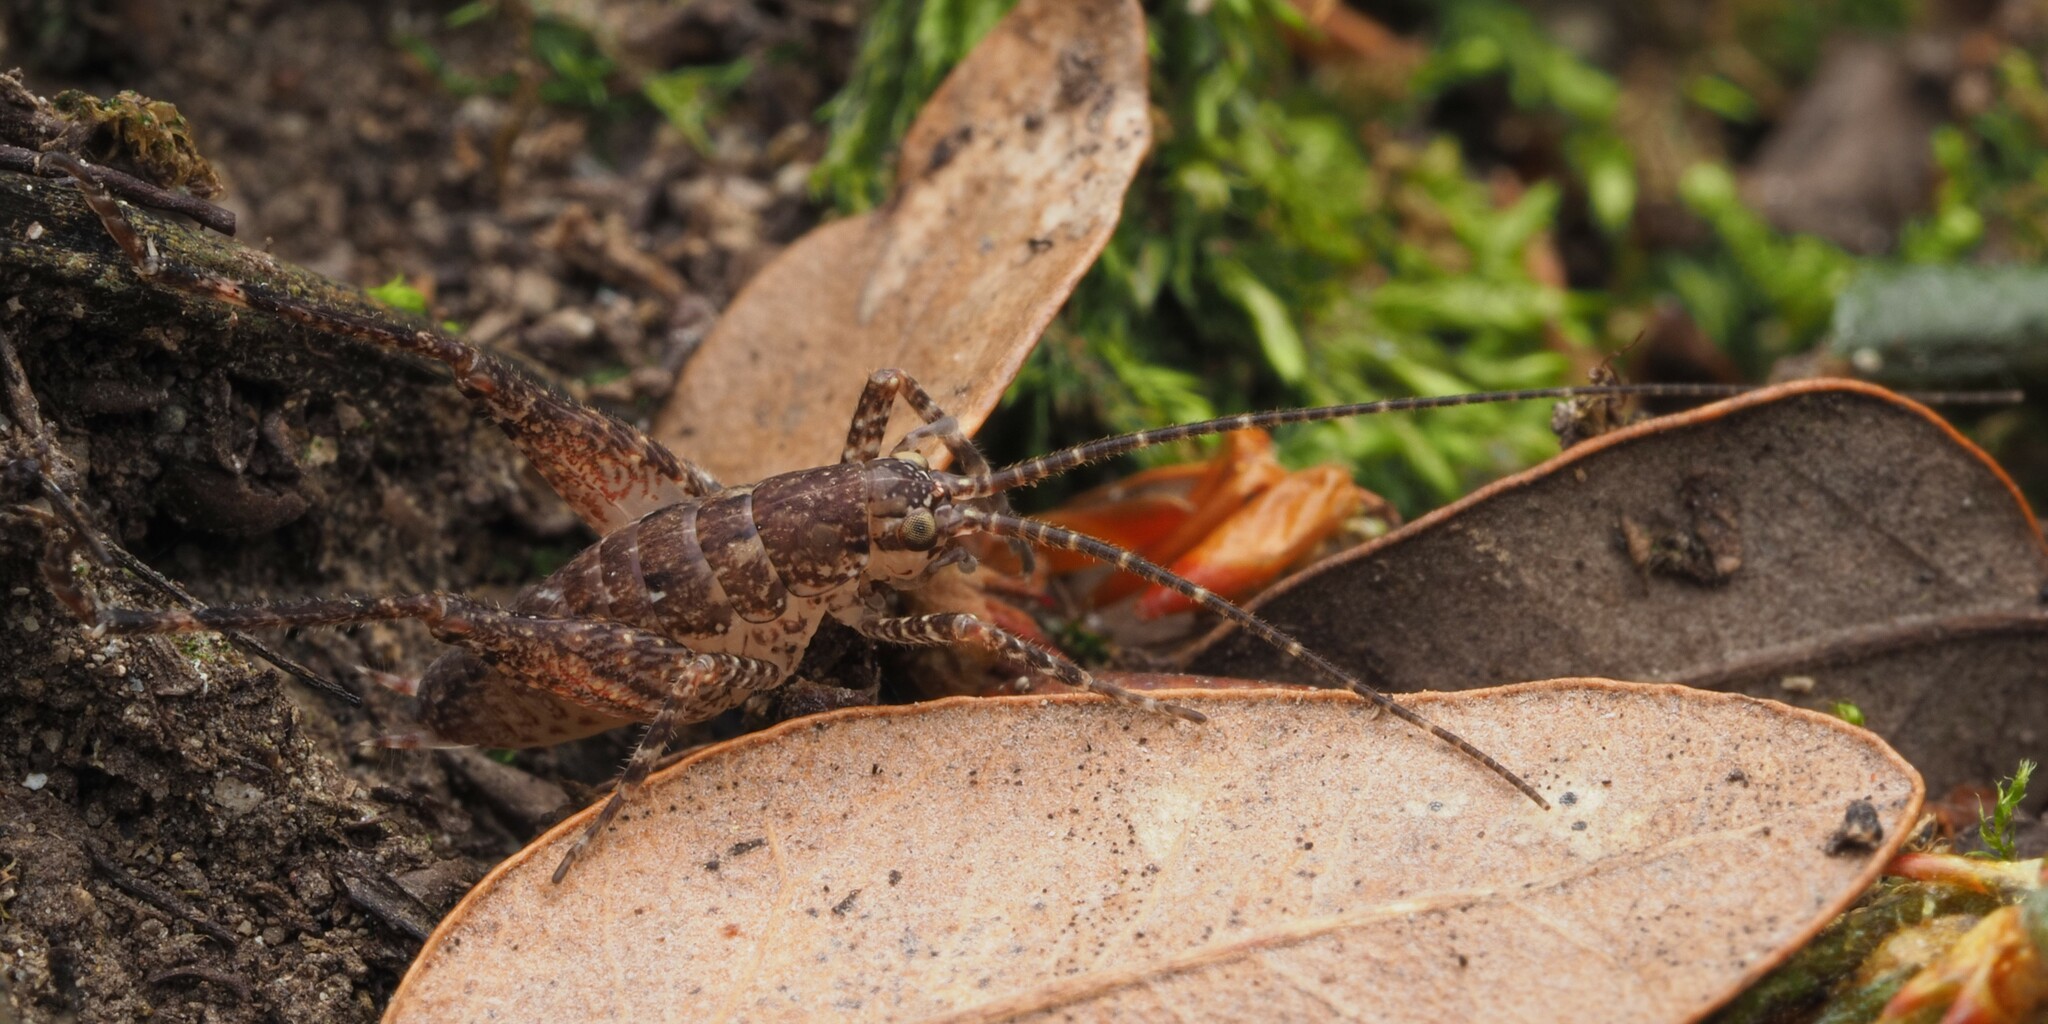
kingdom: Animalia
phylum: Arthropoda
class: Insecta
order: Orthoptera
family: Rhaphidophoridae
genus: Isoplectron
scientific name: Isoplectron armatum
